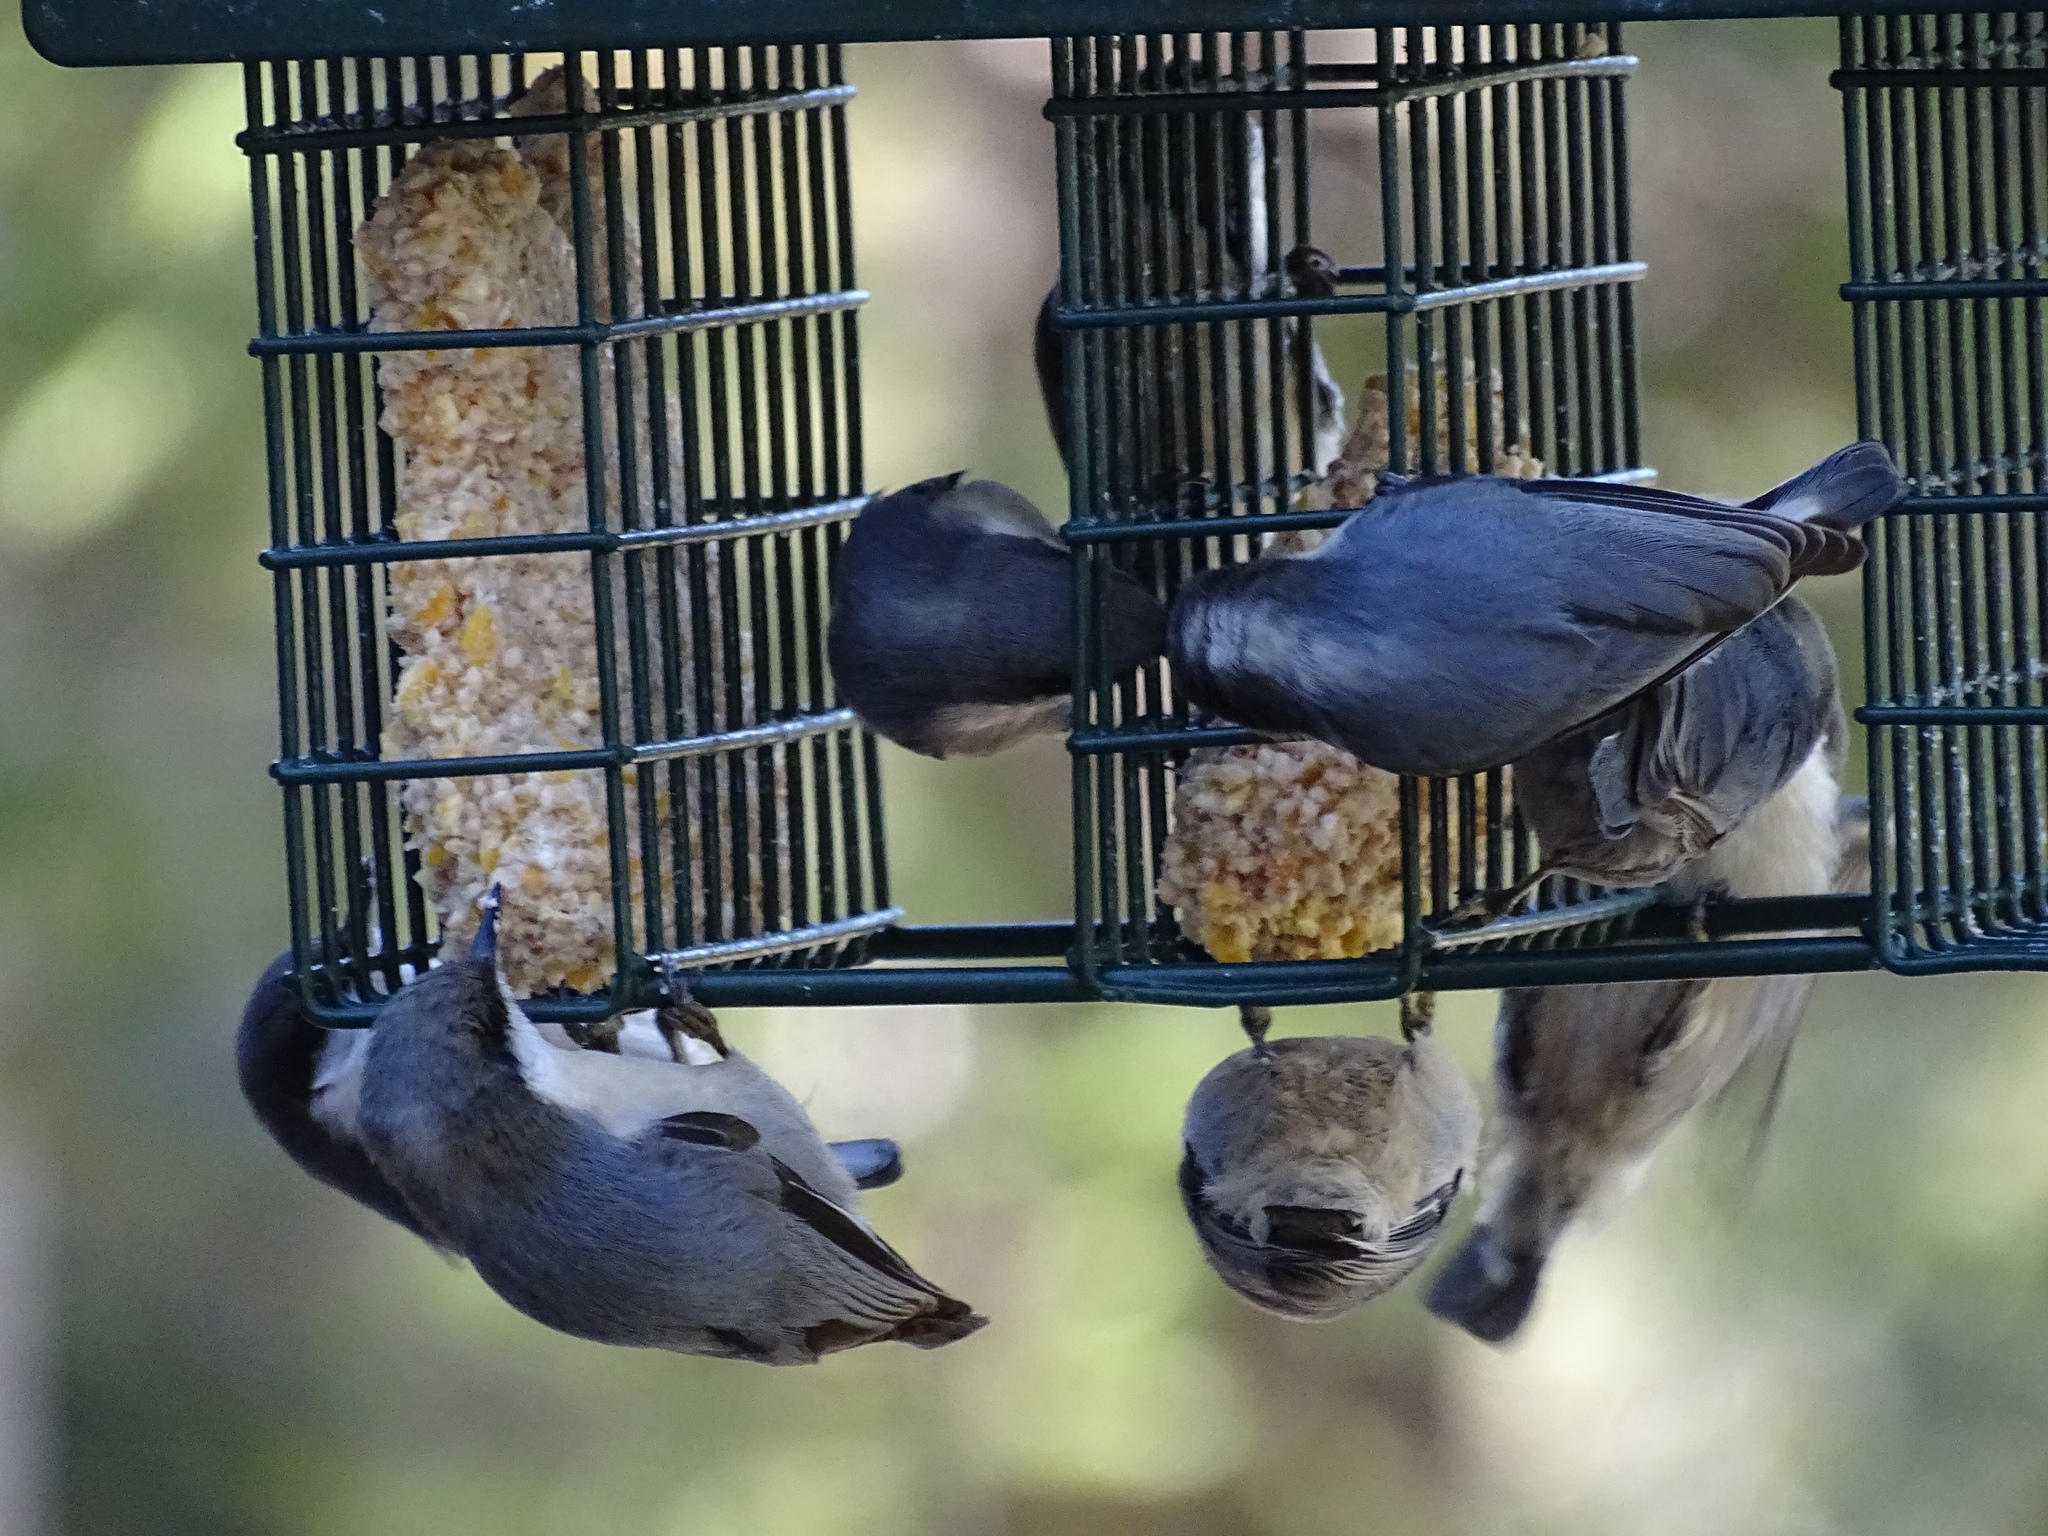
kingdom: Animalia
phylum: Chordata
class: Aves
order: Passeriformes
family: Sittidae
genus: Sitta
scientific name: Sitta carolinensis
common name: White-breasted nuthatch
